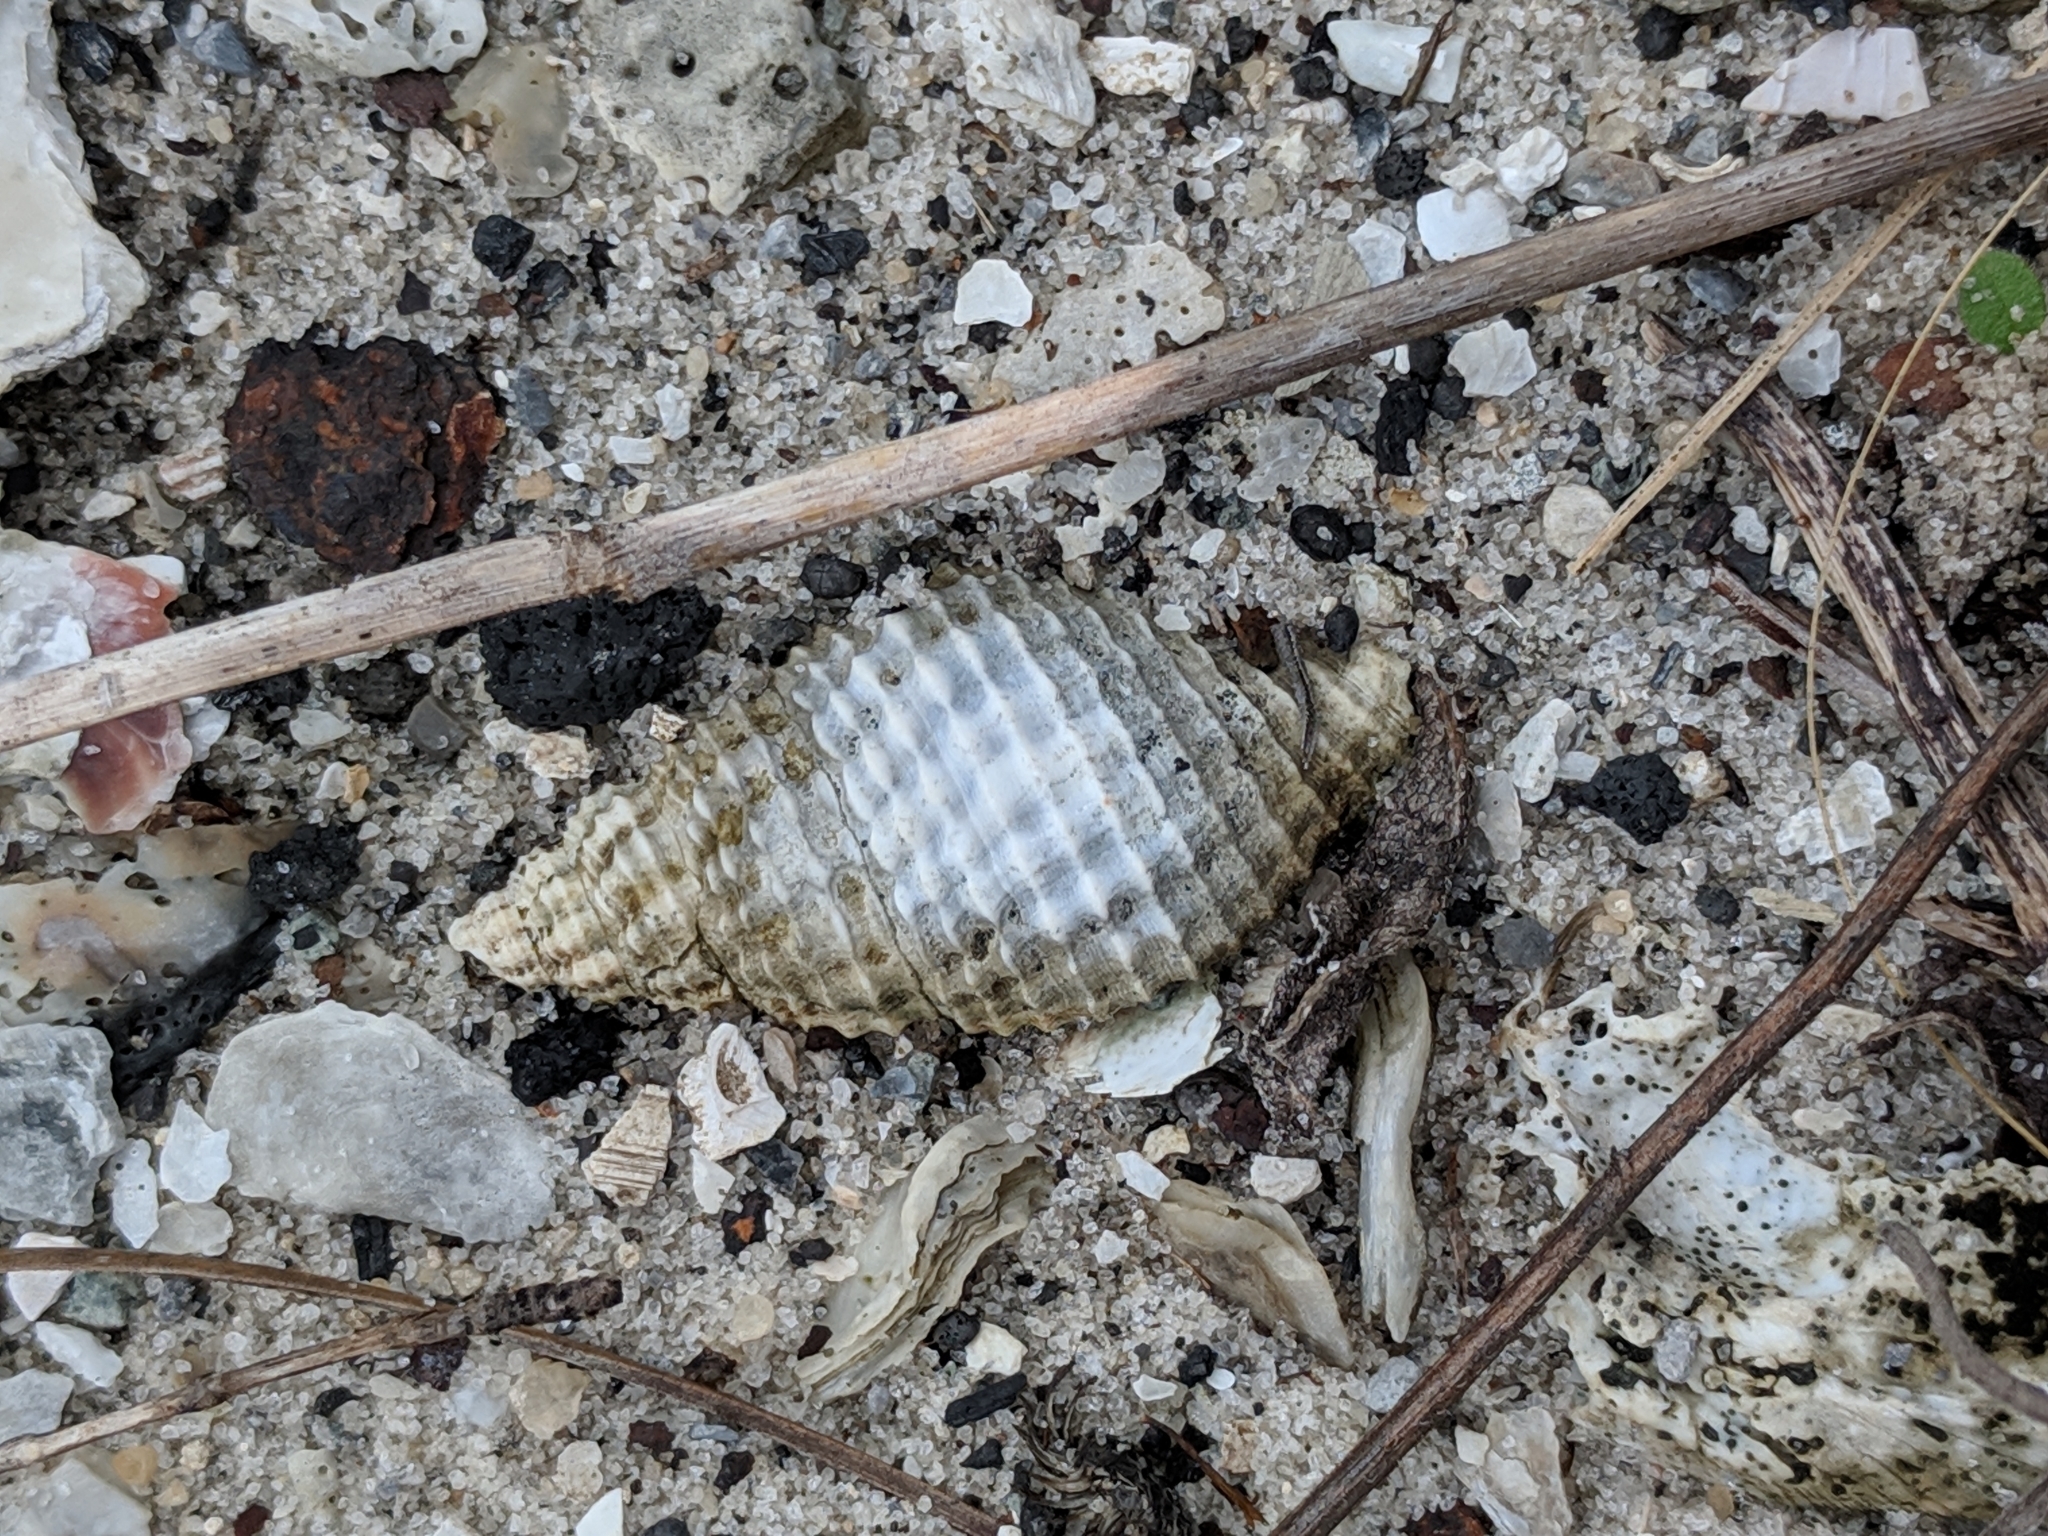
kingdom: Animalia
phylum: Mollusca
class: Gastropoda
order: Neogastropoda
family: Pisaniidae
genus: Solenosteira
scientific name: Solenosteira cancellaria
